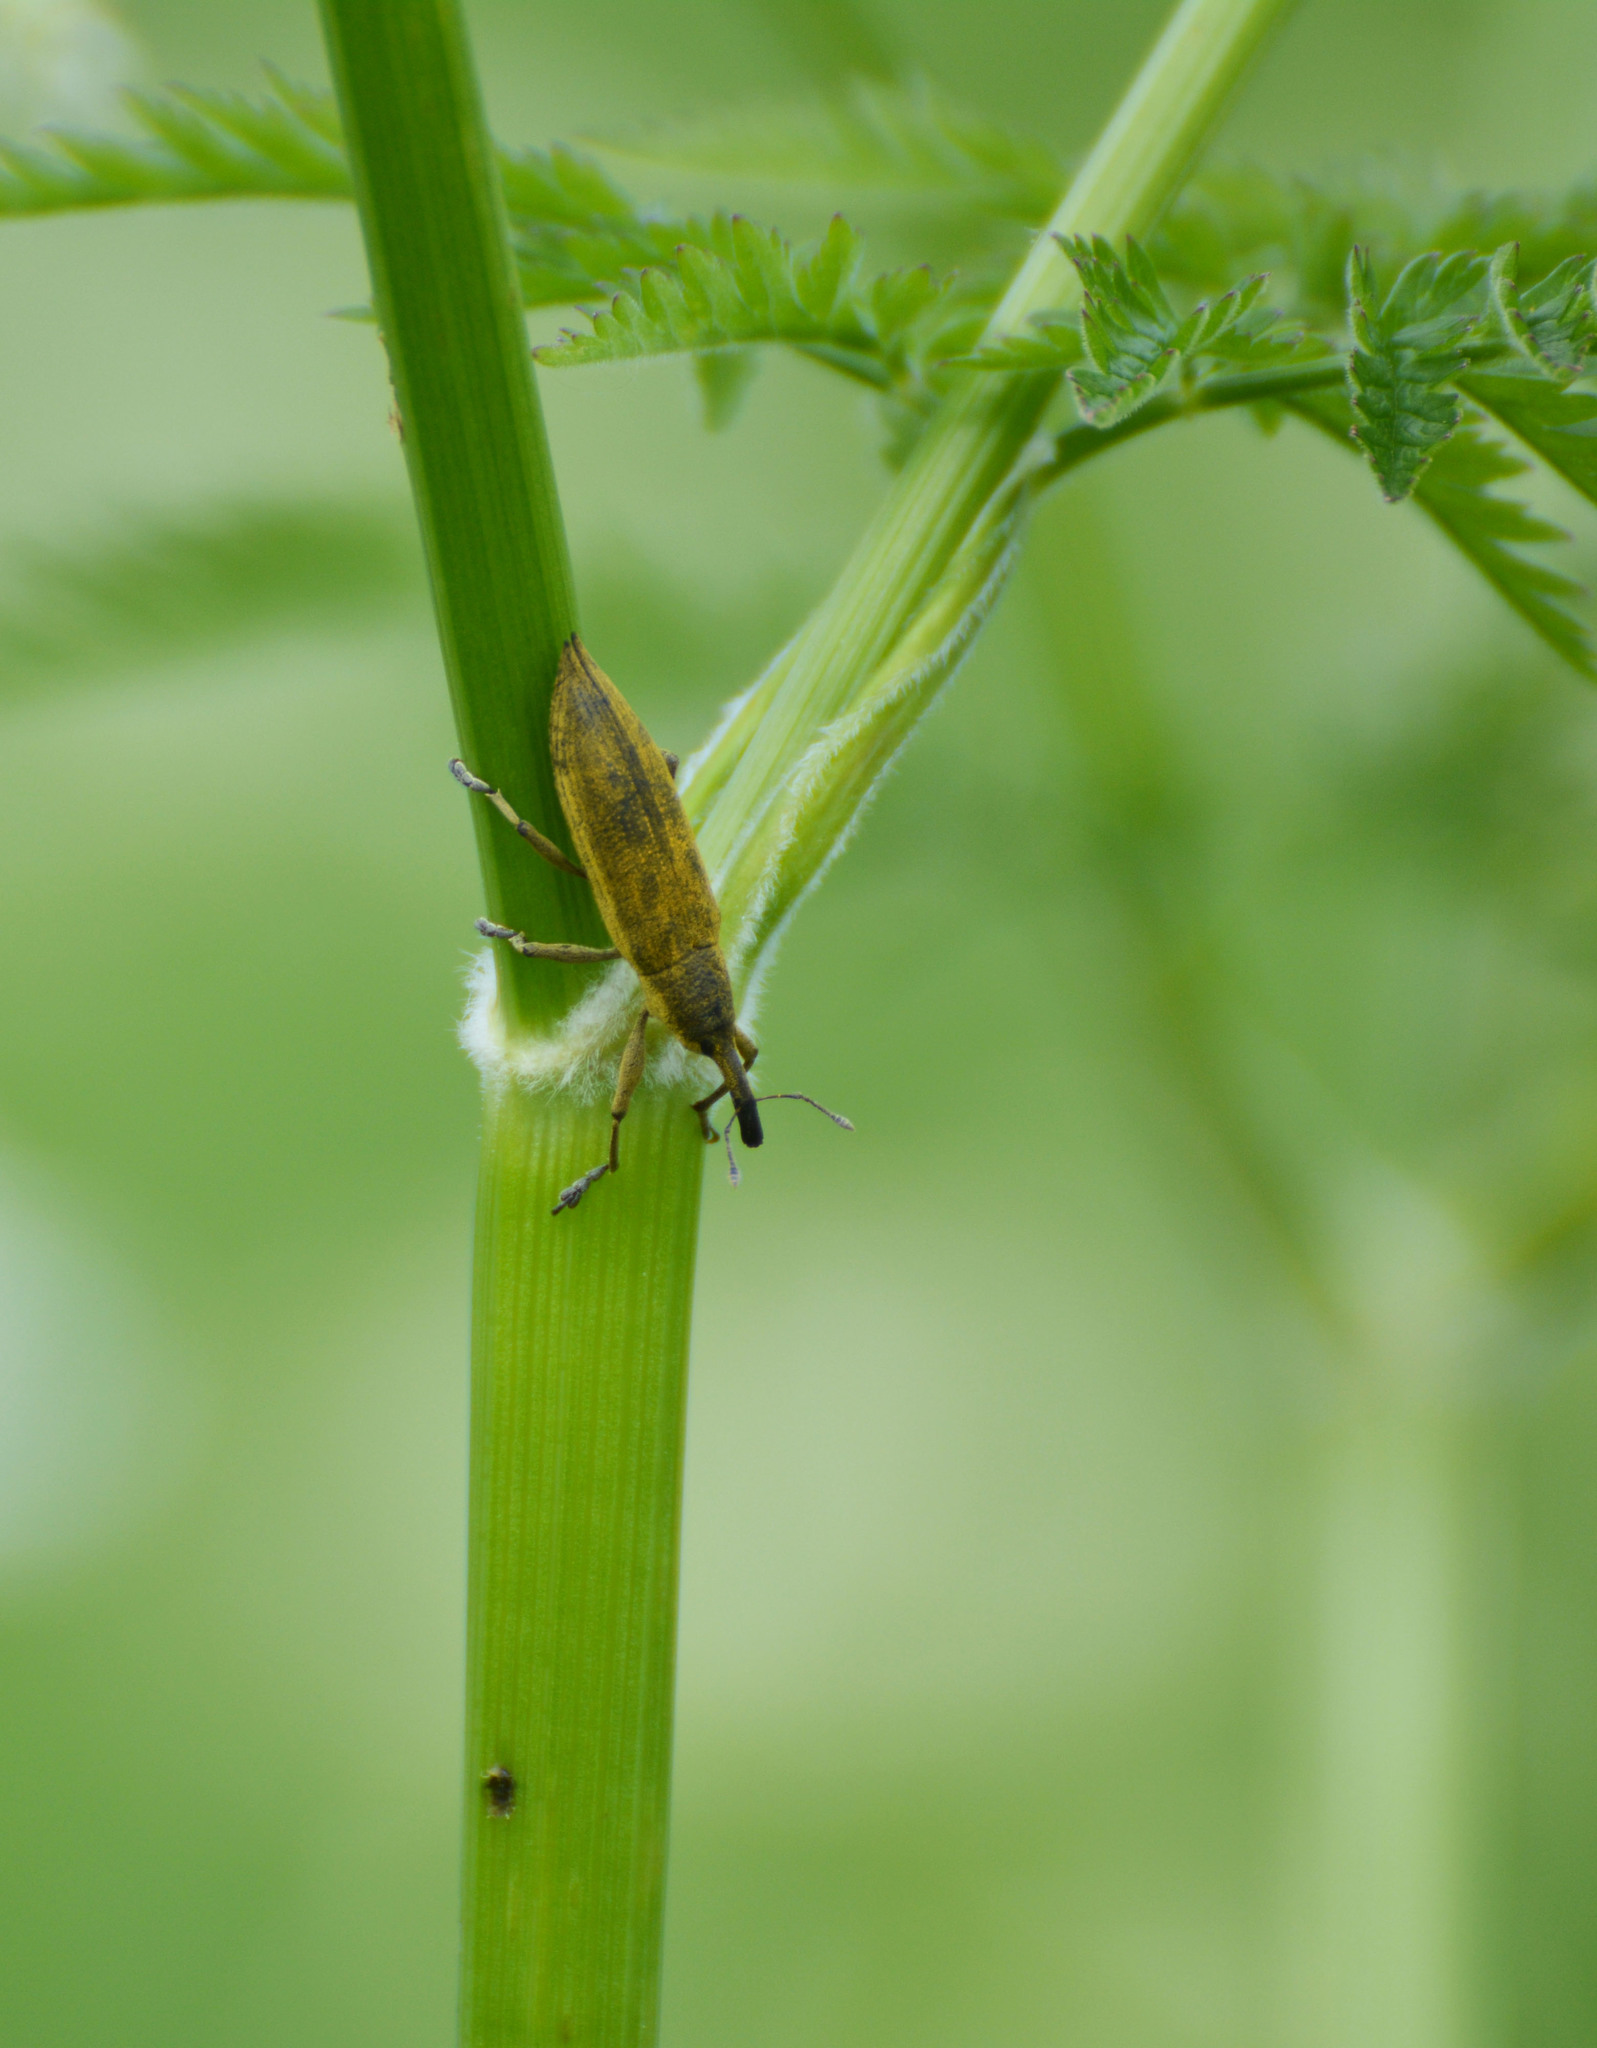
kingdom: Animalia
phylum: Arthropoda
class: Insecta
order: Coleoptera
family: Curculionidae
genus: Lixus
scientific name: Lixus iridis
